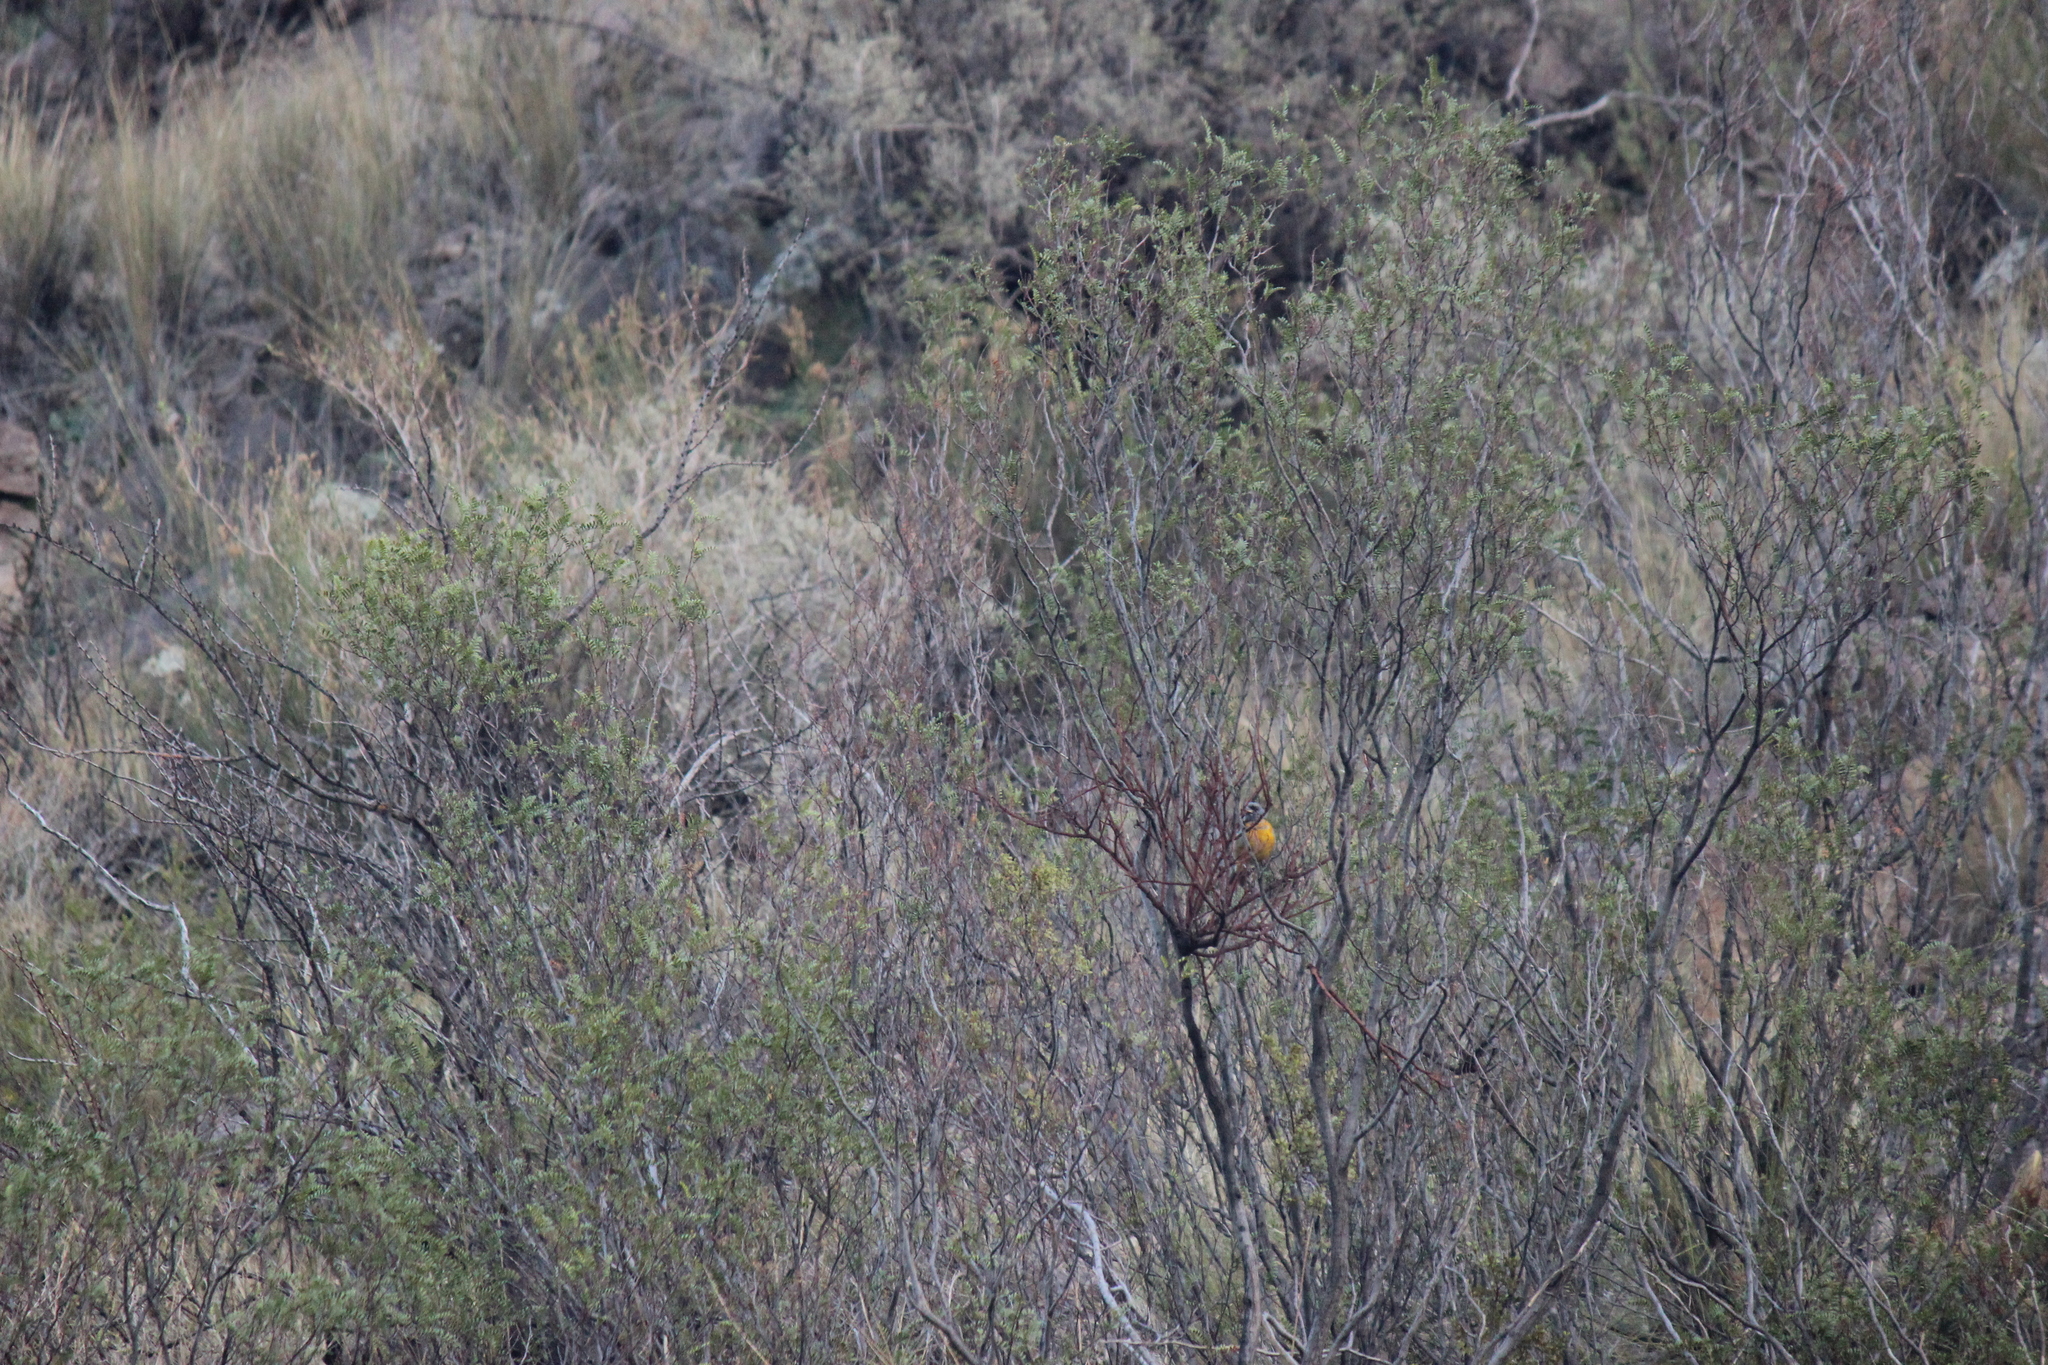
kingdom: Animalia
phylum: Chordata
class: Aves
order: Passeriformes
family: Thraupidae
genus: Rauenia
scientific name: Rauenia bonariensis
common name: Blue-and-yellow tanager
